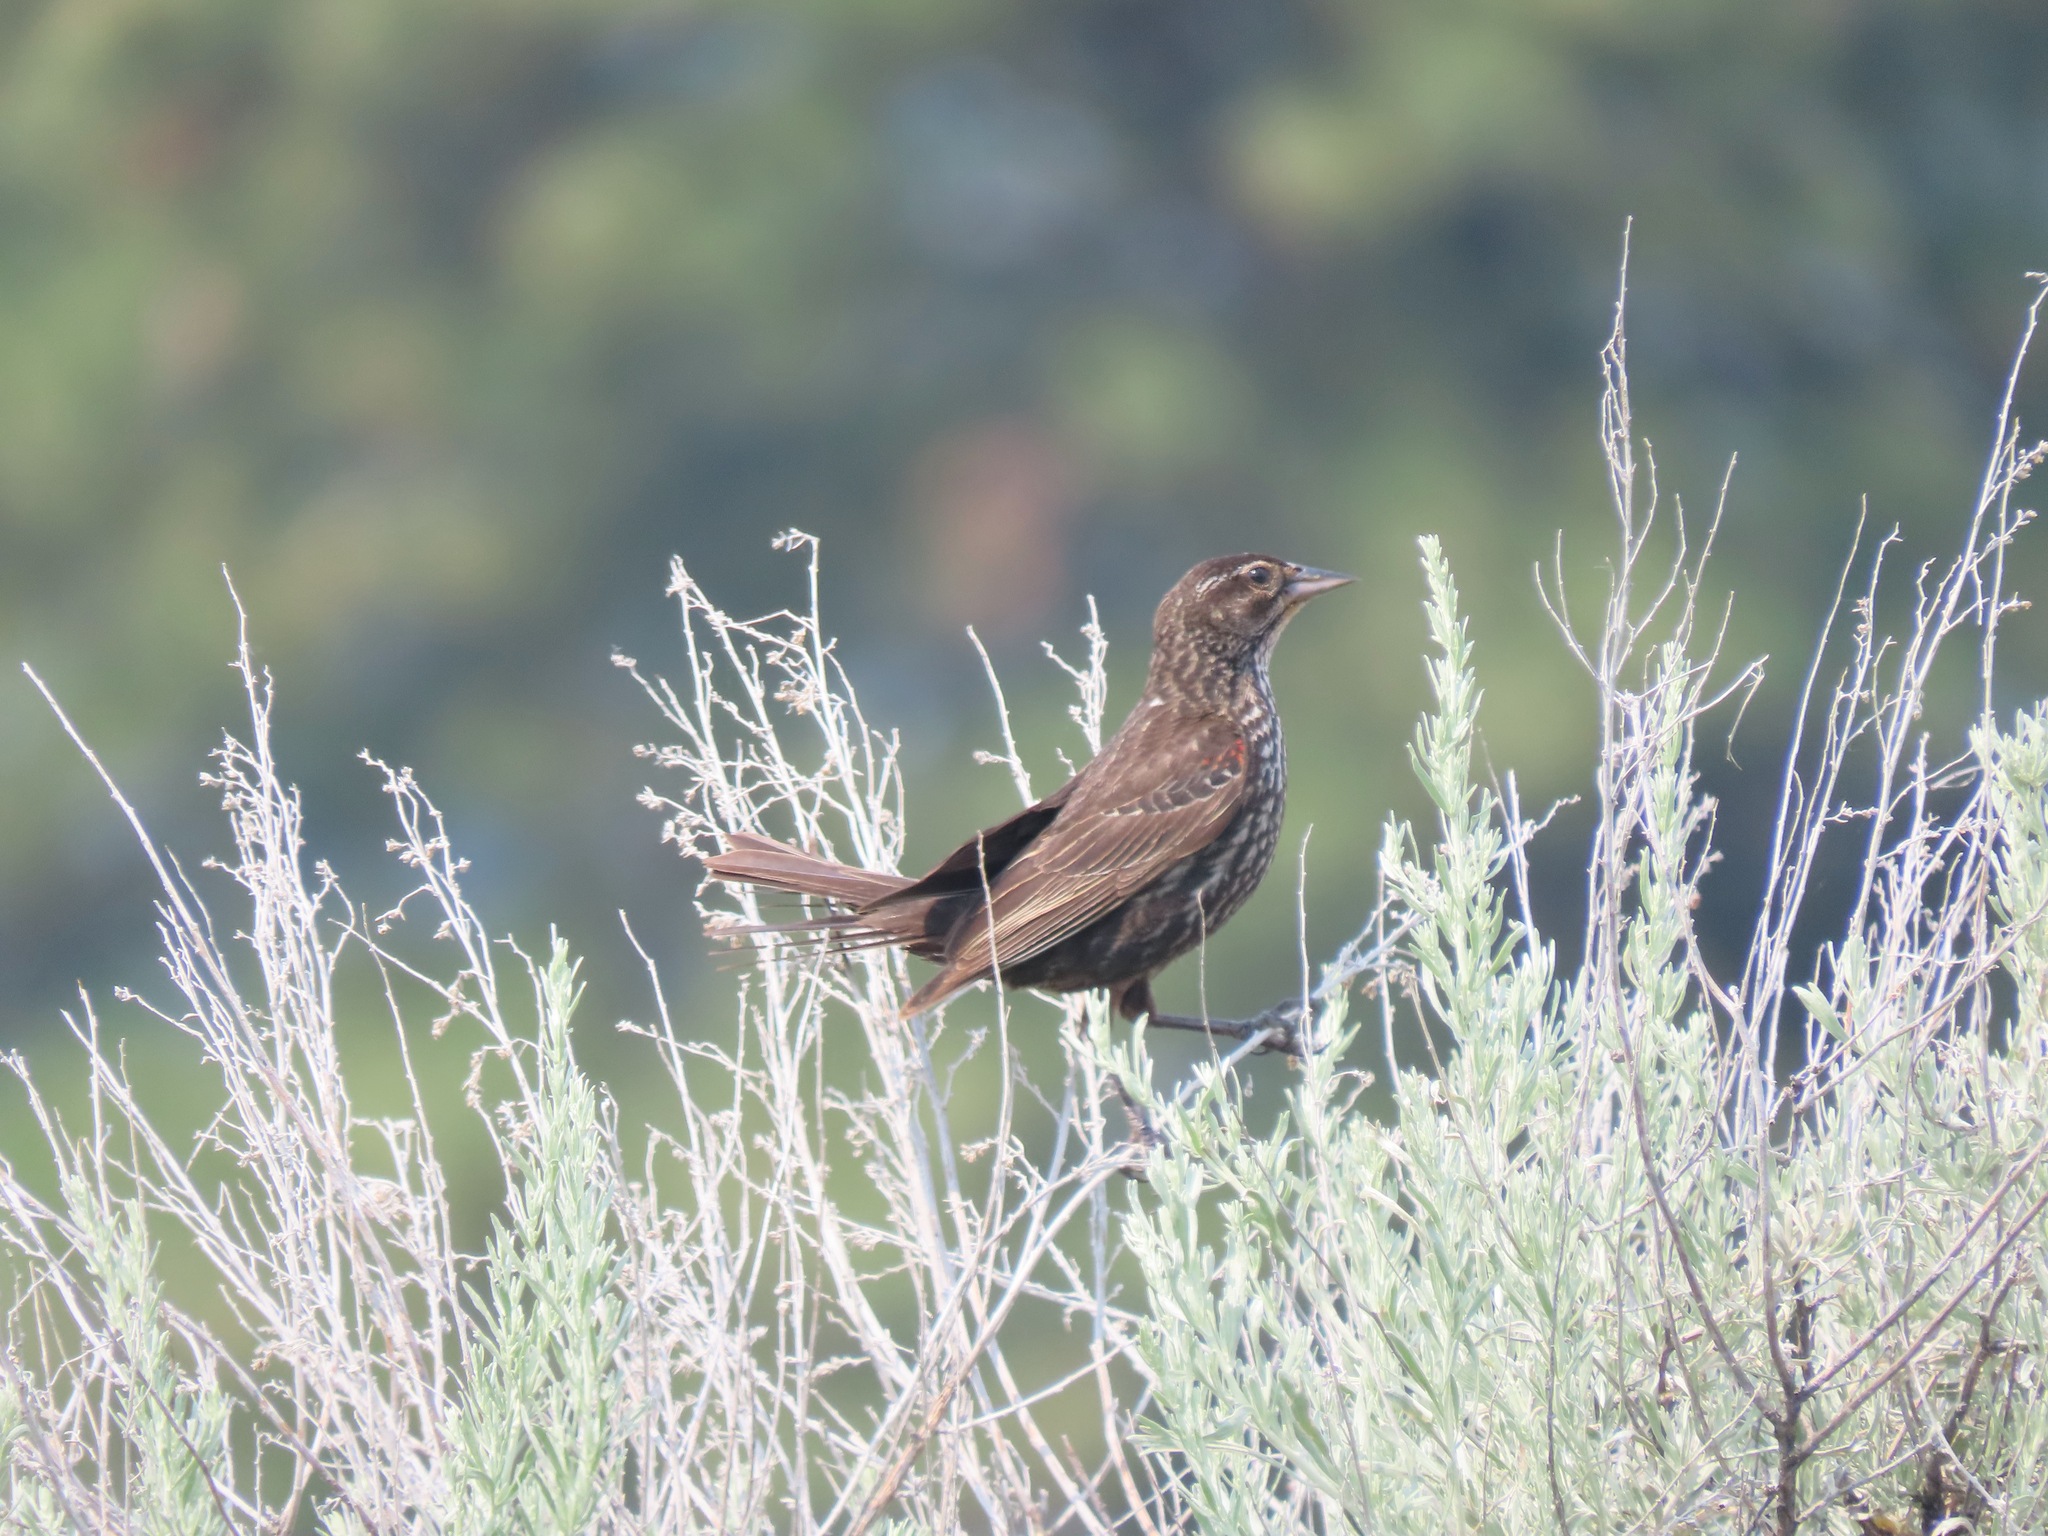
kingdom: Animalia
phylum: Chordata
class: Aves
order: Passeriformes
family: Icteridae
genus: Agelaius
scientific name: Agelaius phoeniceus
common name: Red-winged blackbird
